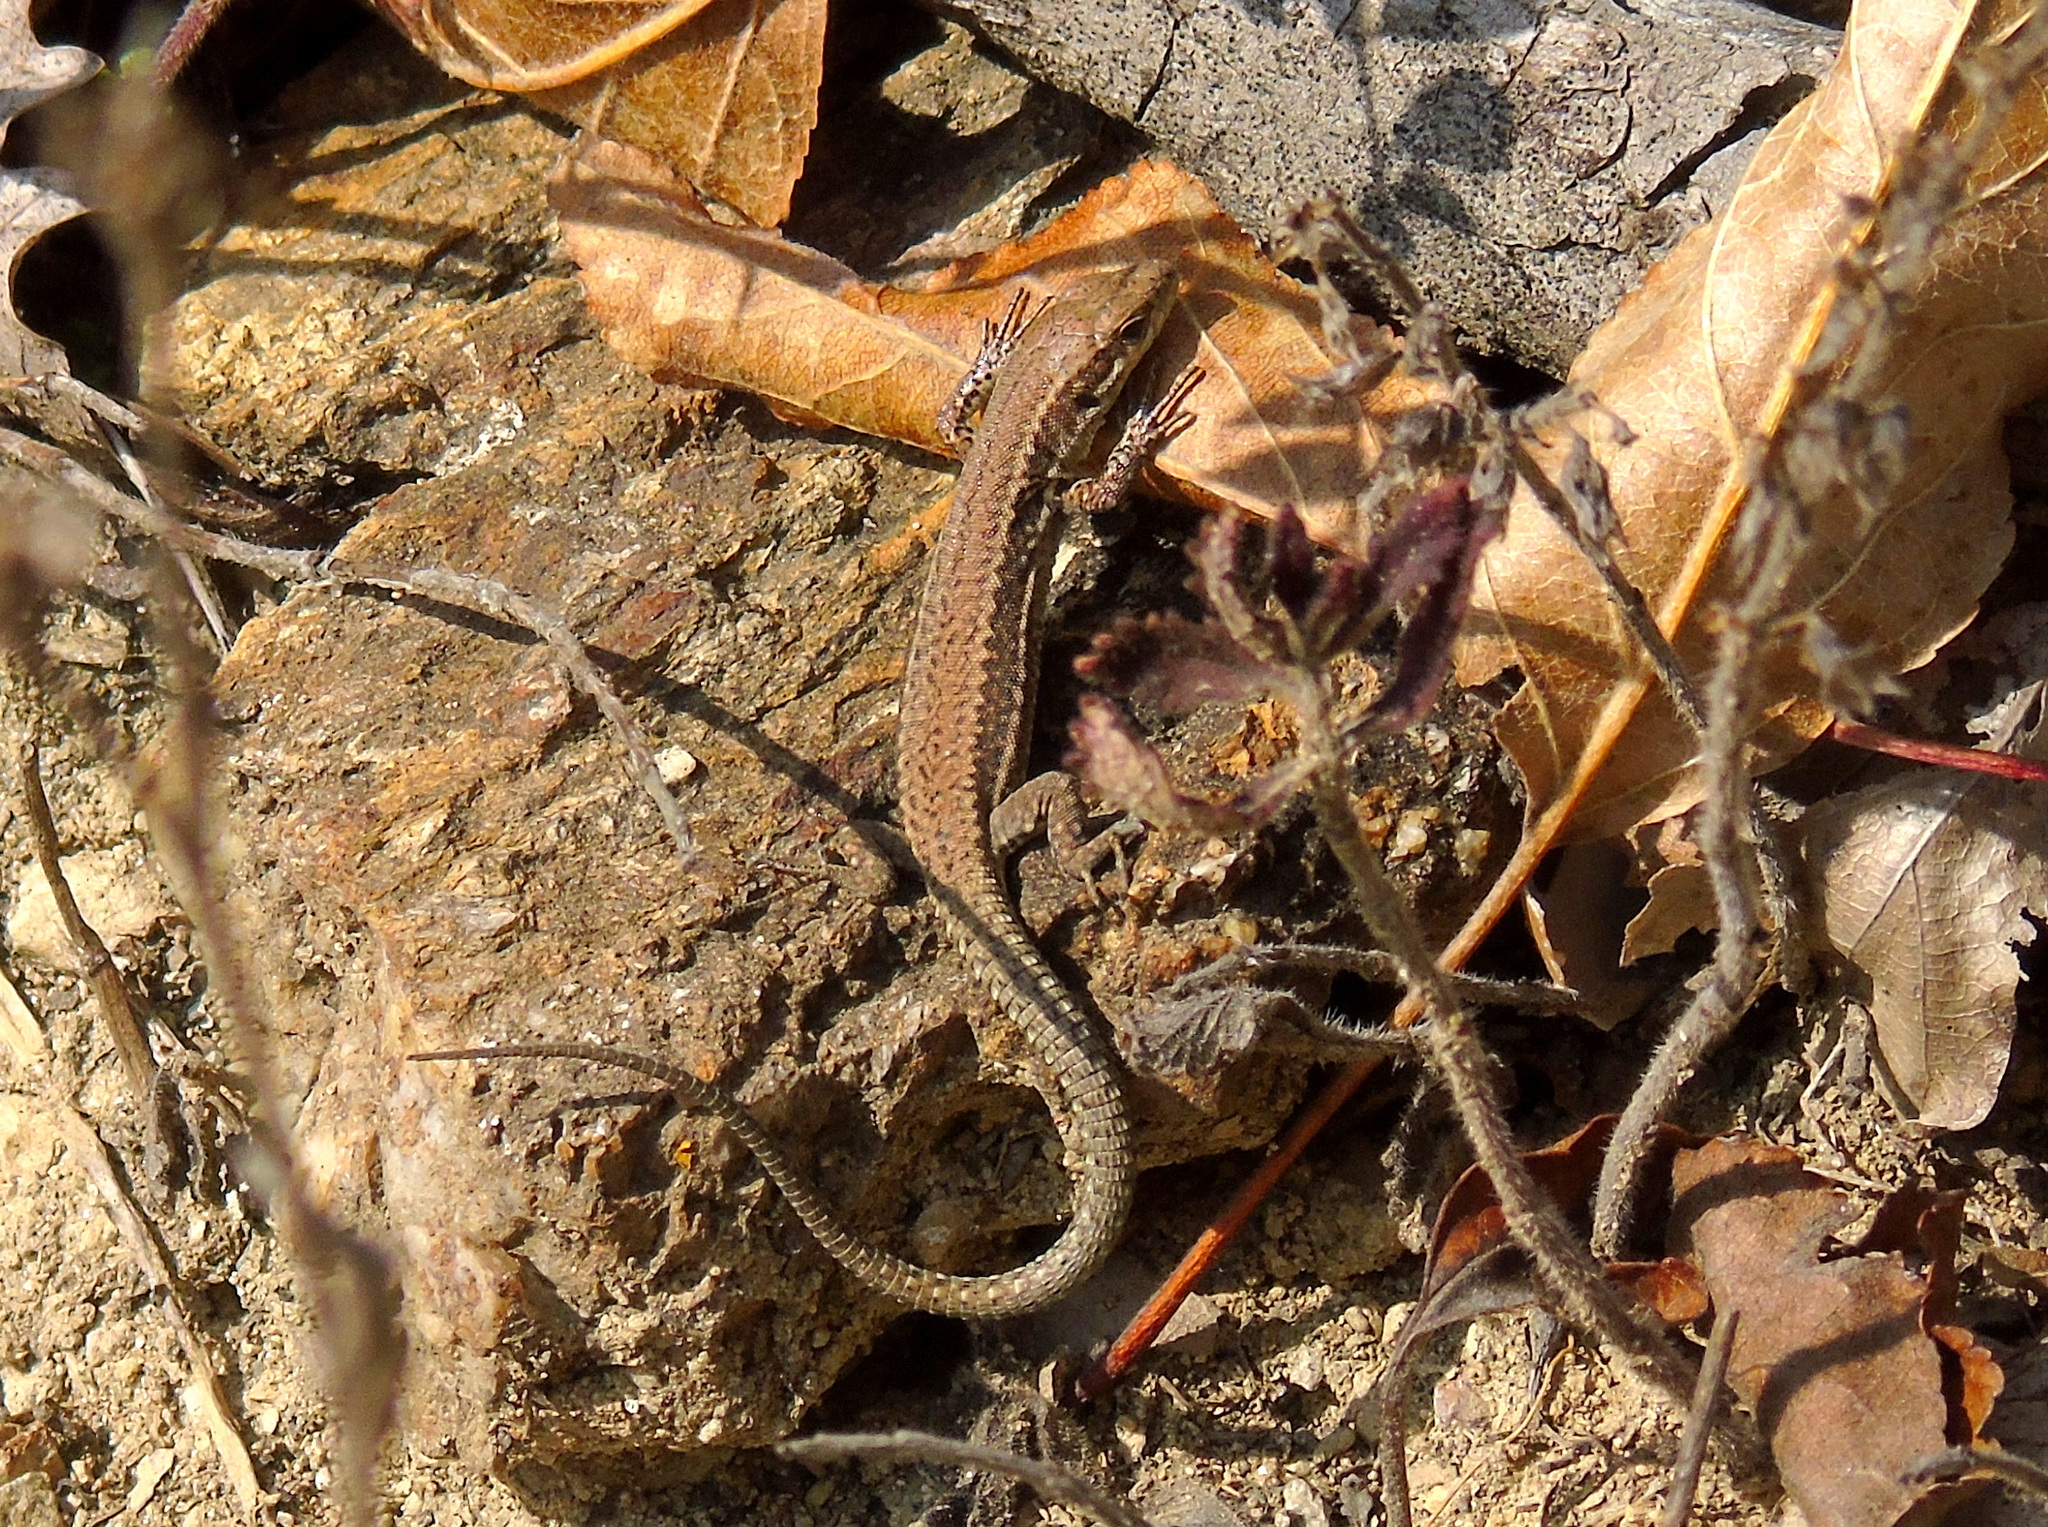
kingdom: Animalia
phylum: Chordata
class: Squamata
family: Lacertidae
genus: Podarcis
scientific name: Podarcis muralis
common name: Common wall lizard
